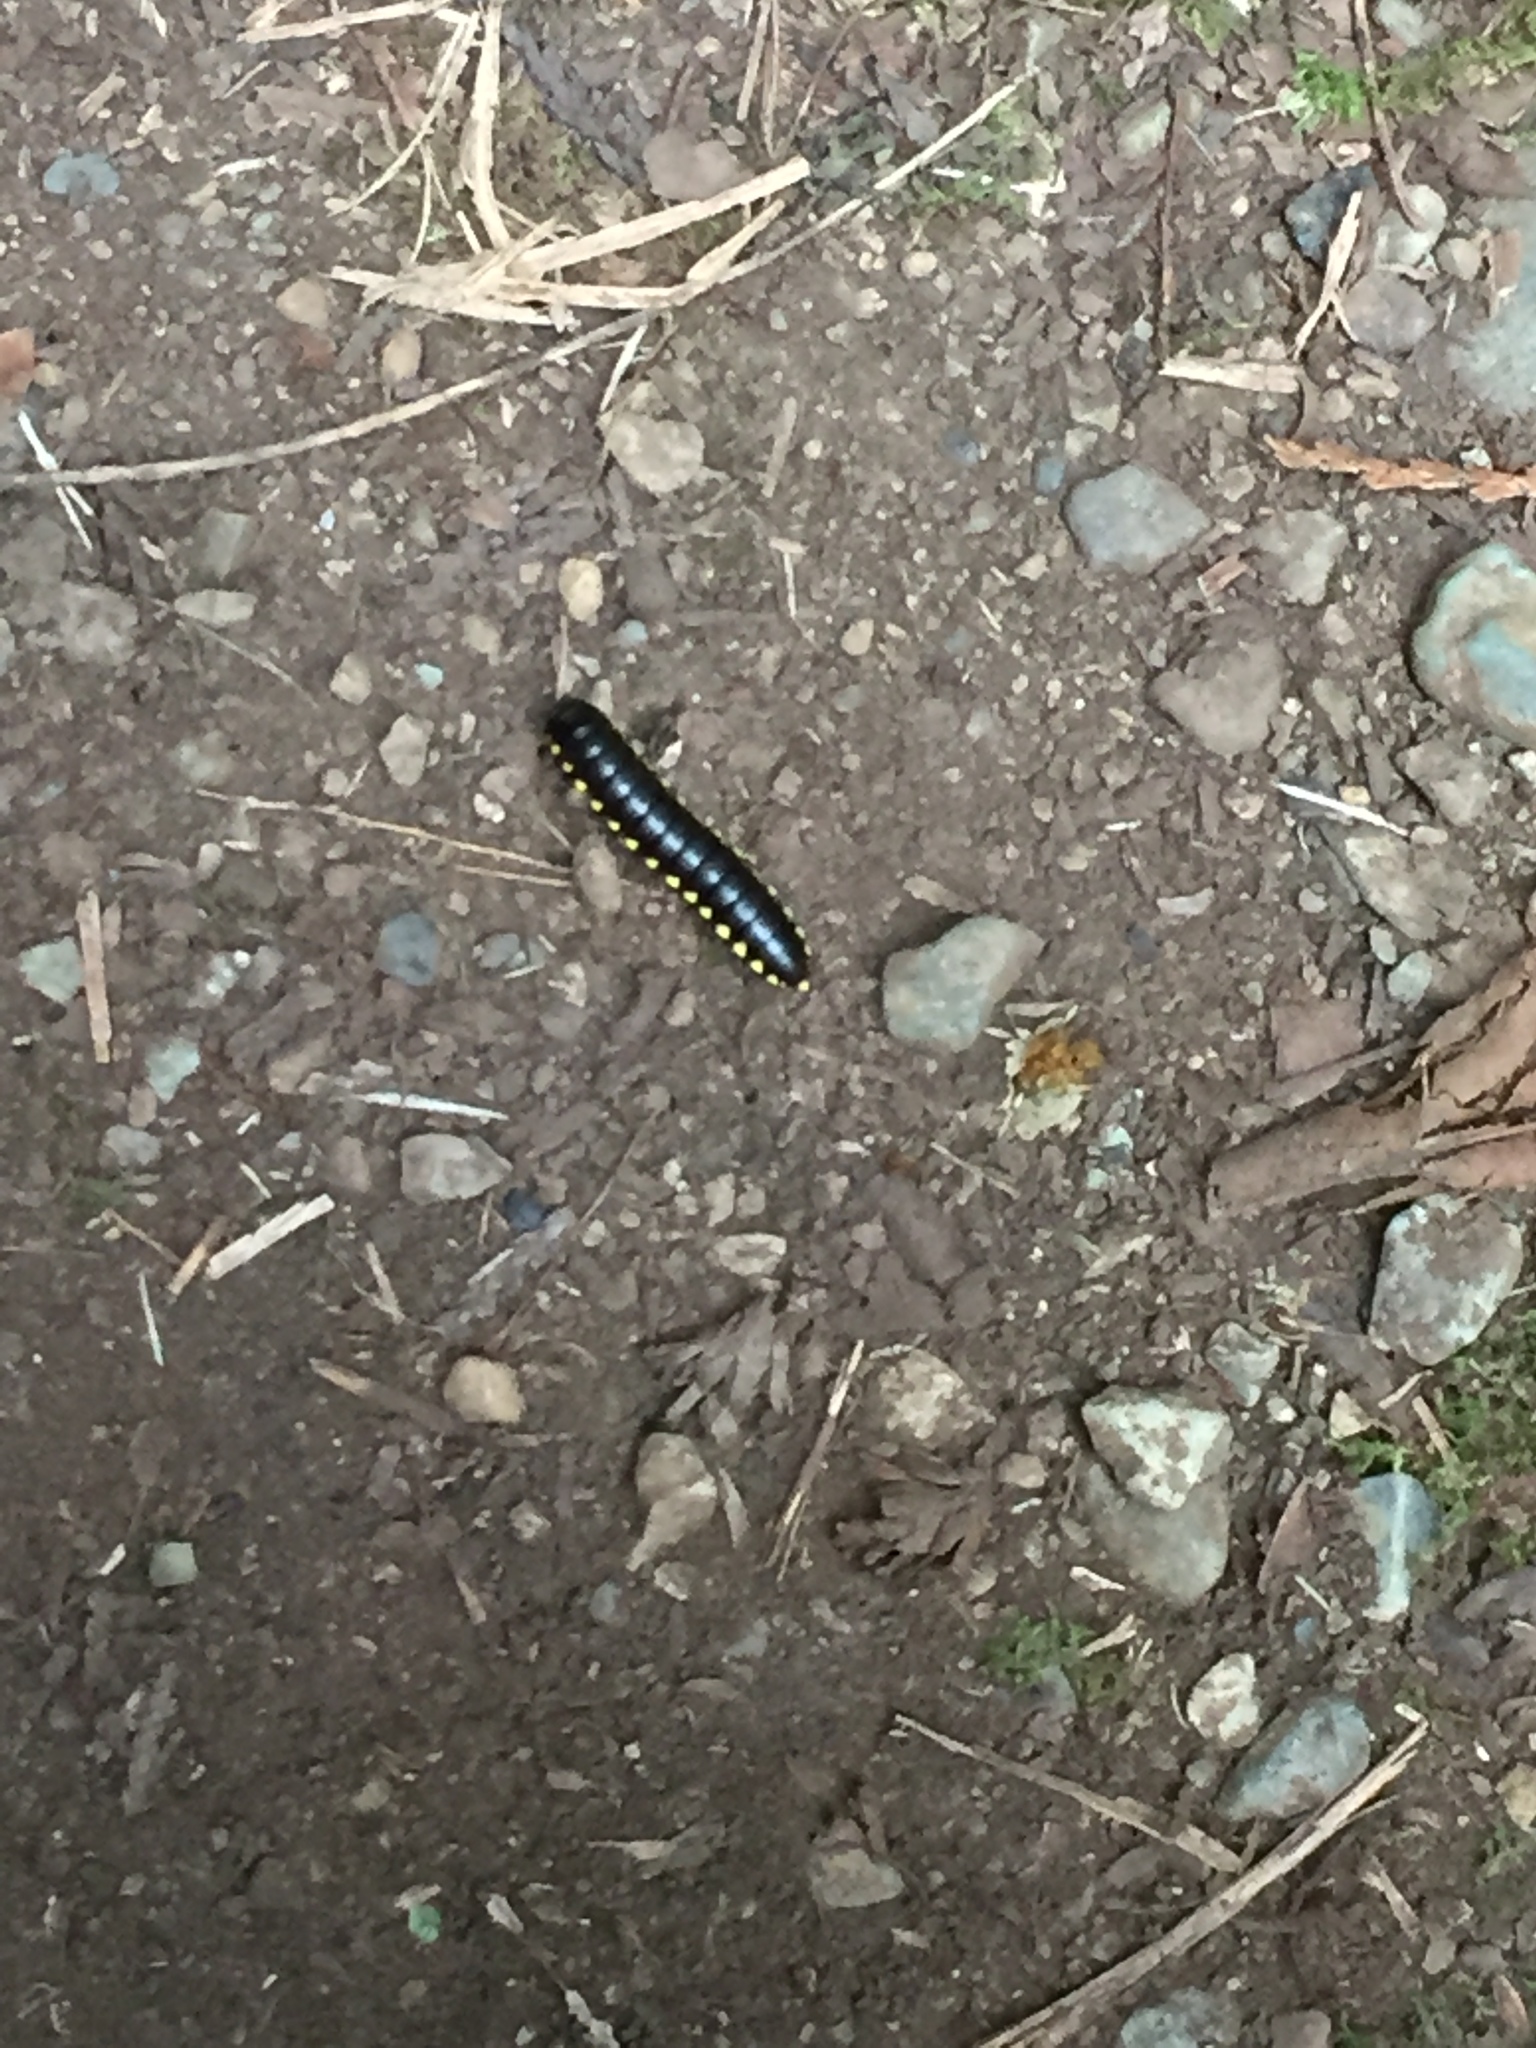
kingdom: Animalia
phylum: Arthropoda
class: Diplopoda
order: Polydesmida
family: Xystodesmidae
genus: Harpaphe
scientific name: Harpaphe haydeniana
